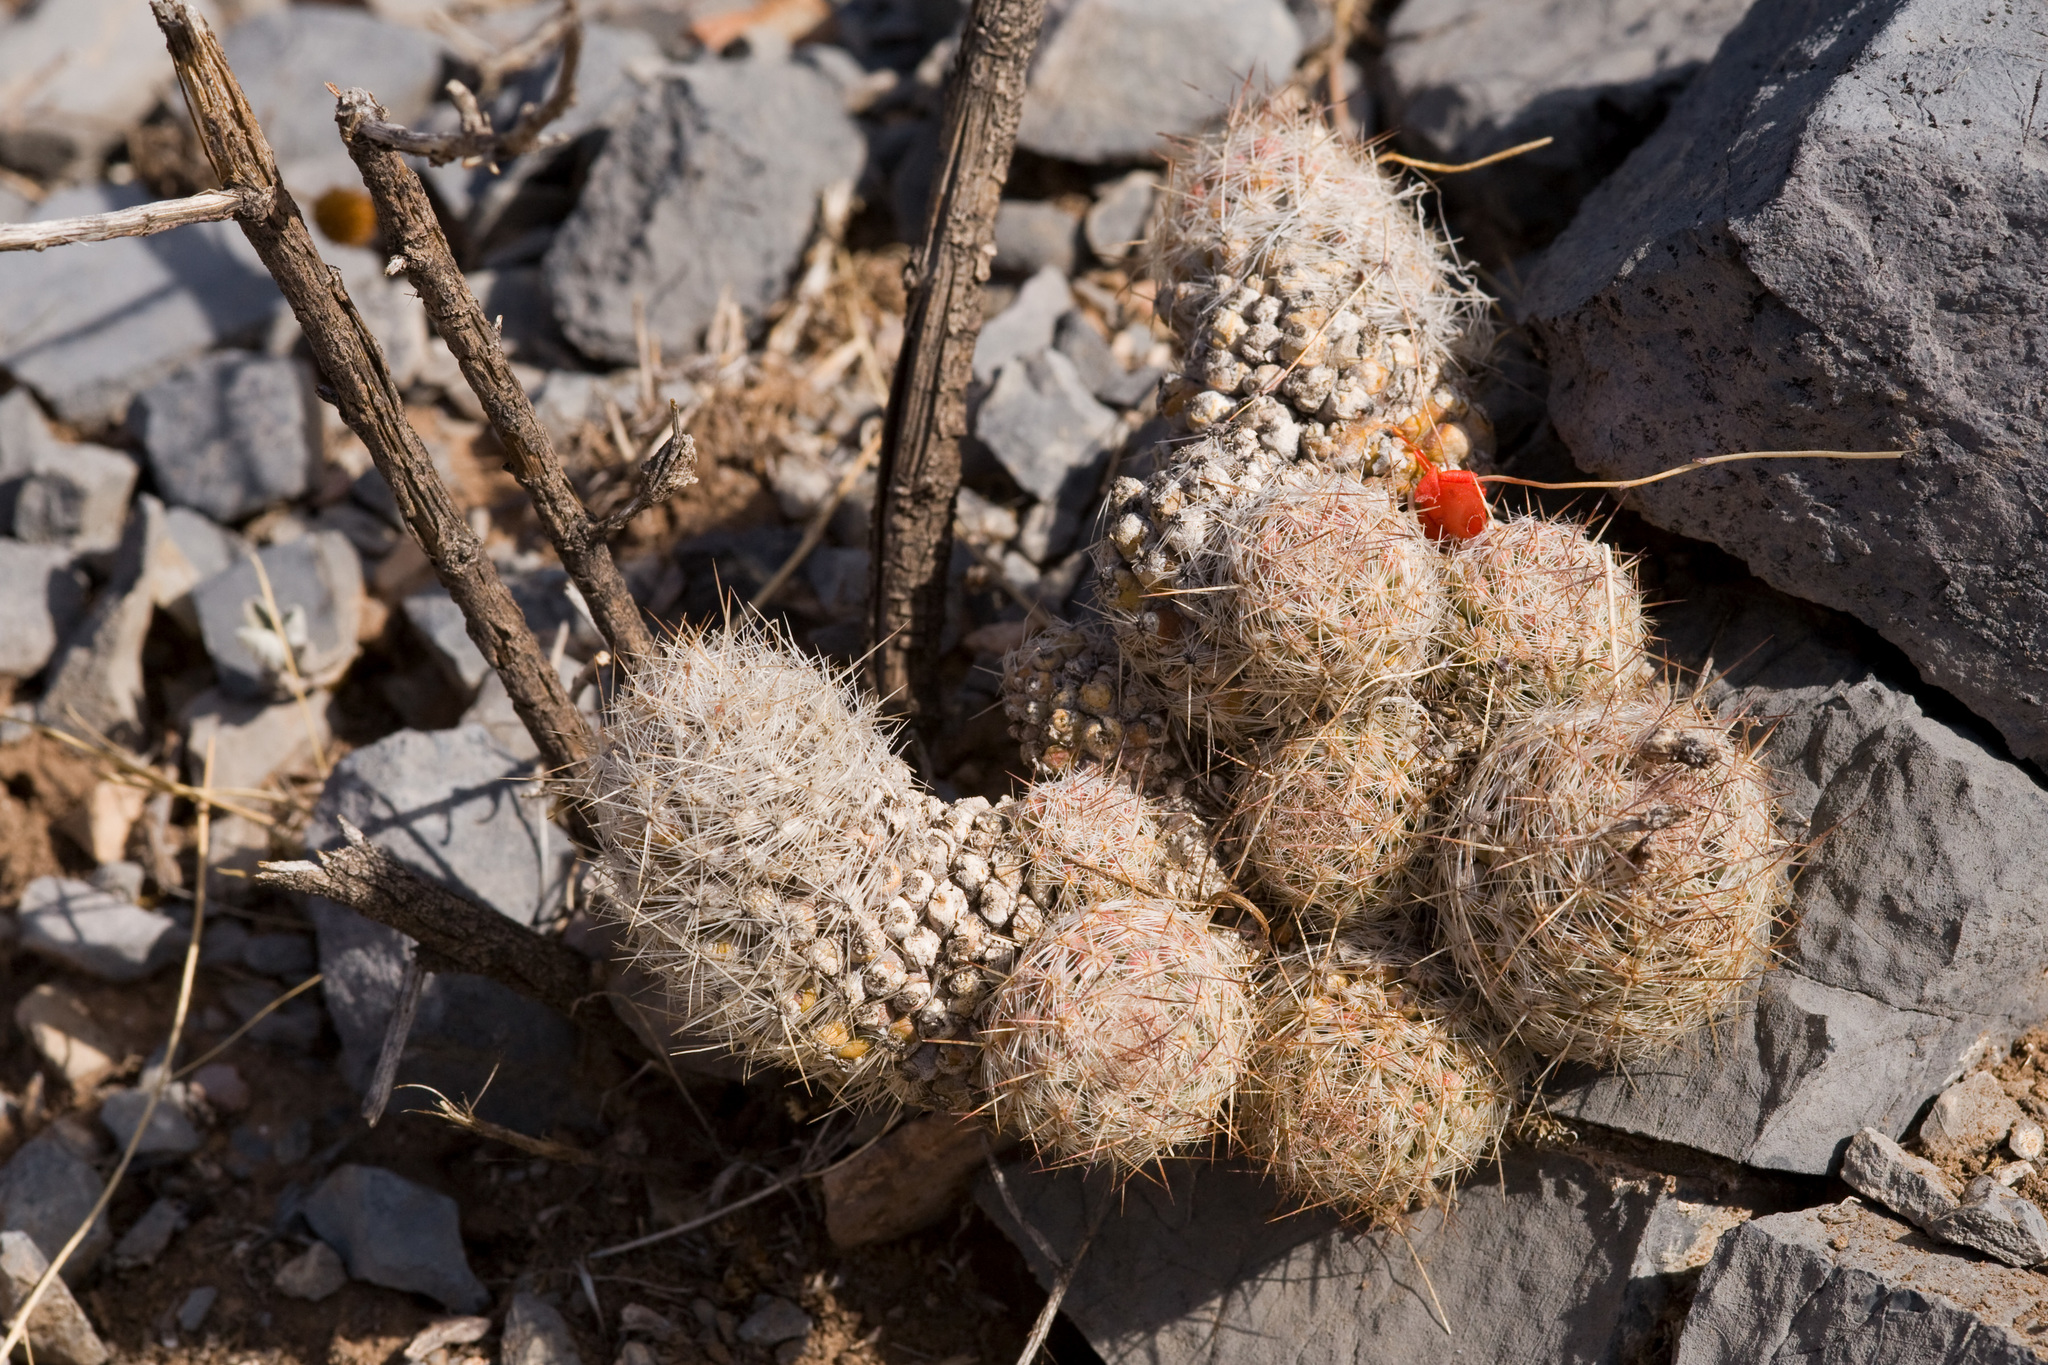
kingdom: Plantae
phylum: Tracheophyta
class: Magnoliopsida
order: Caryophyllales
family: Cactaceae
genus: Pelecyphora
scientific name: Pelecyphora tuberculosa
